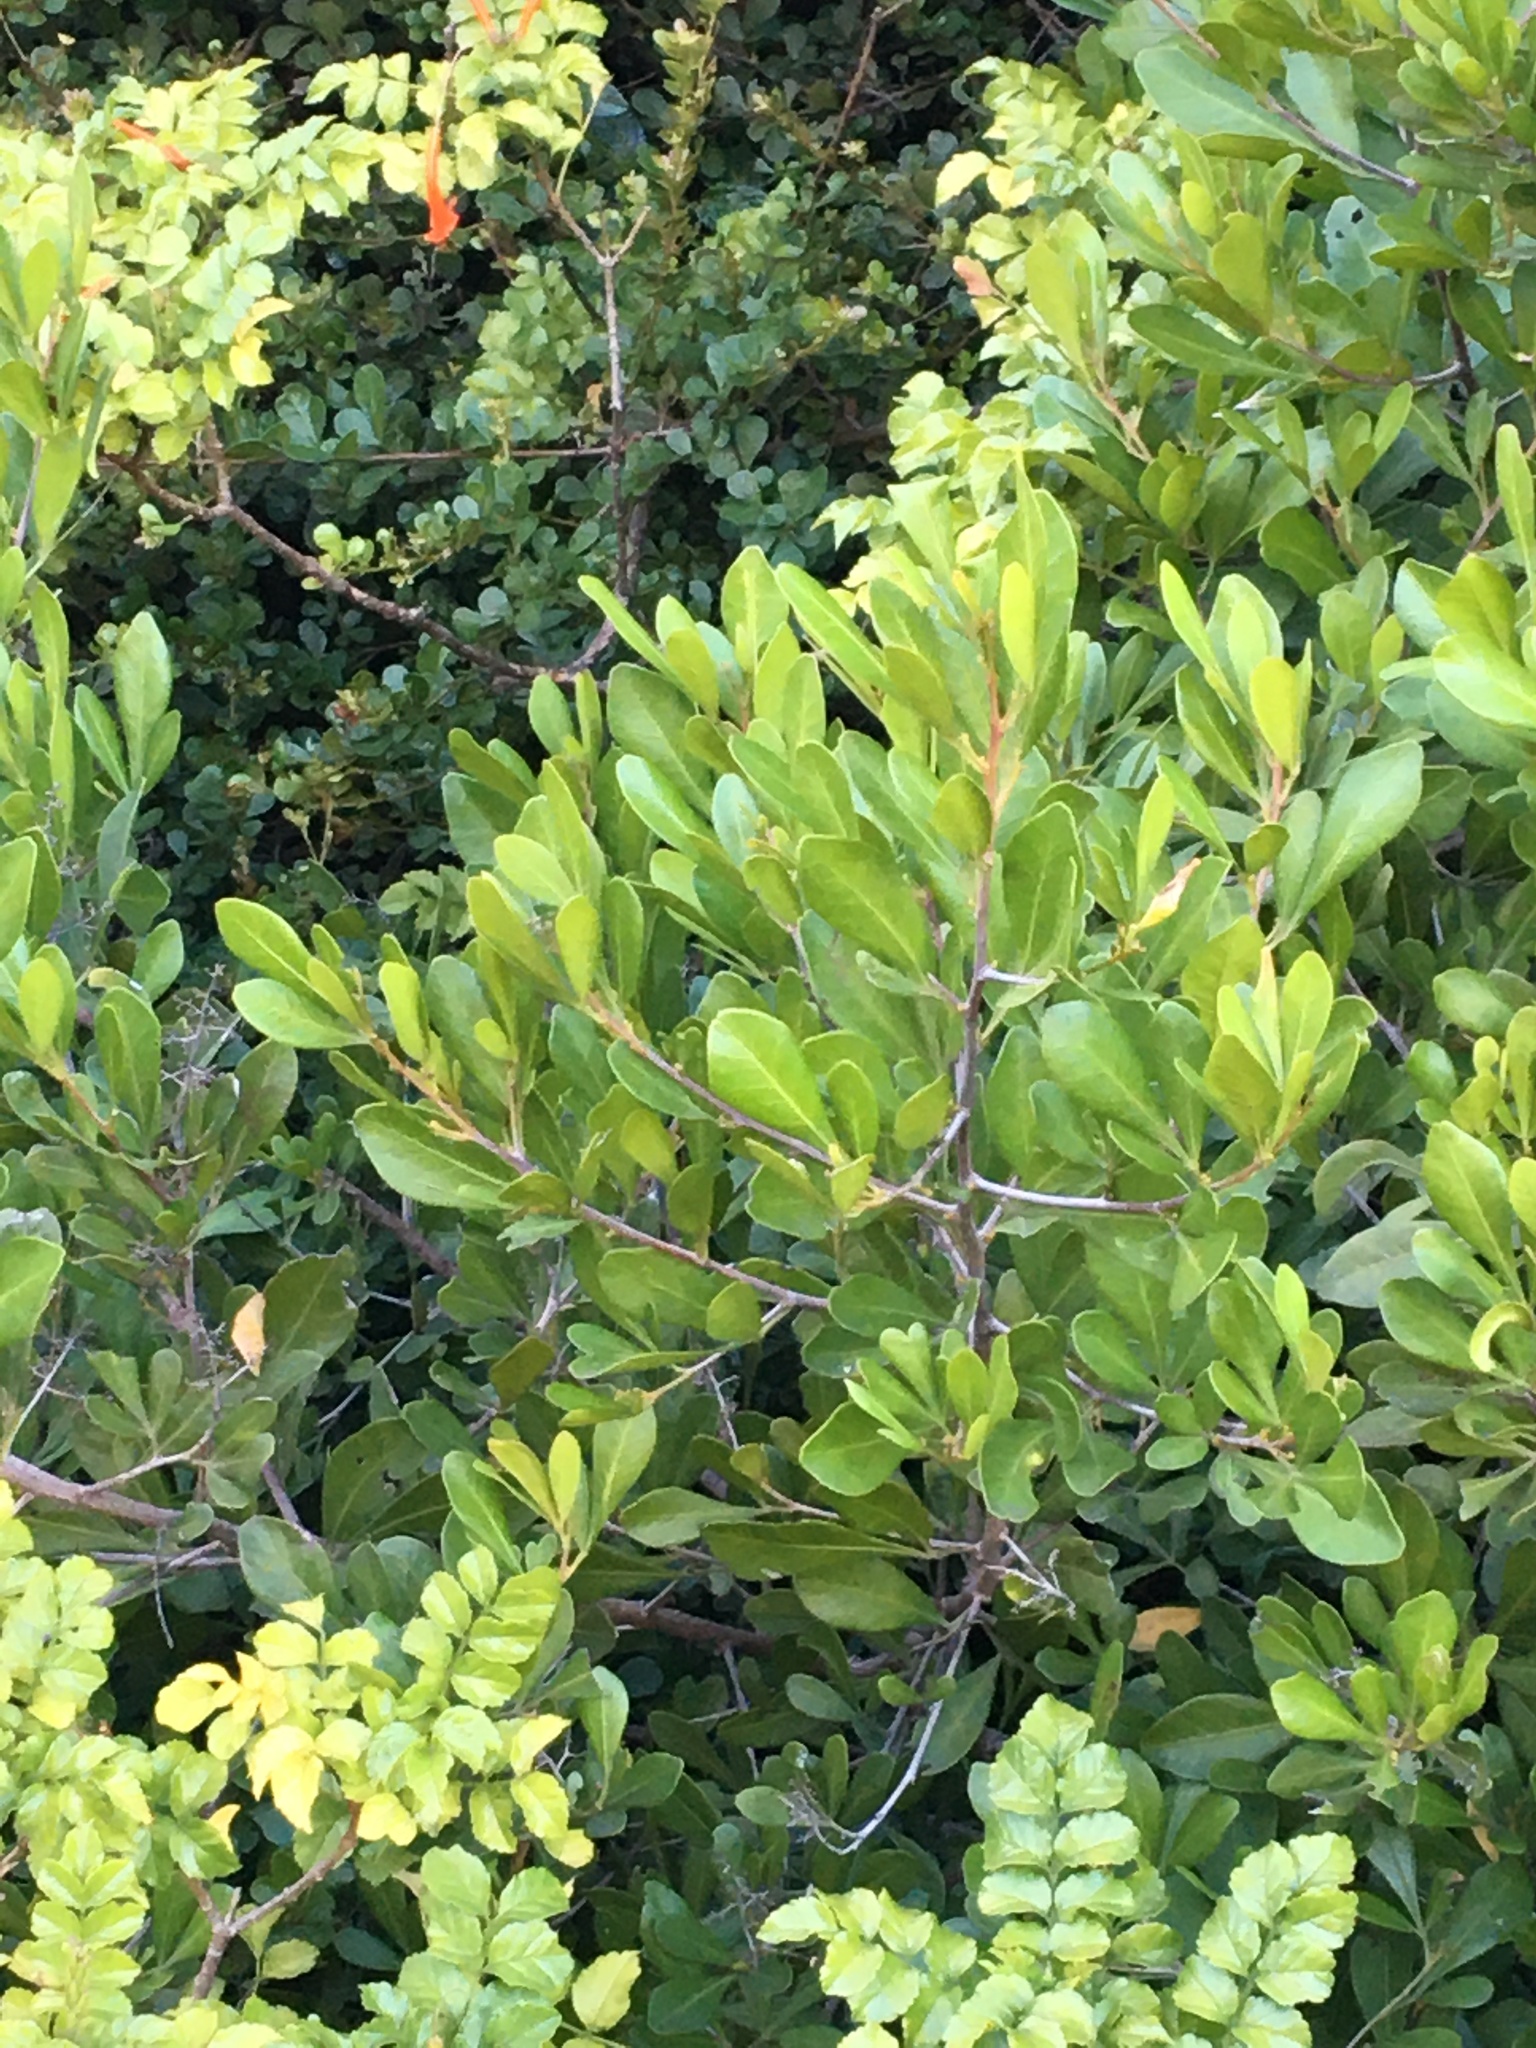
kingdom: Plantae
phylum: Tracheophyta
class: Magnoliopsida
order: Sapindales
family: Anacardiaceae
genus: Searsia
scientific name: Searsia lucida
